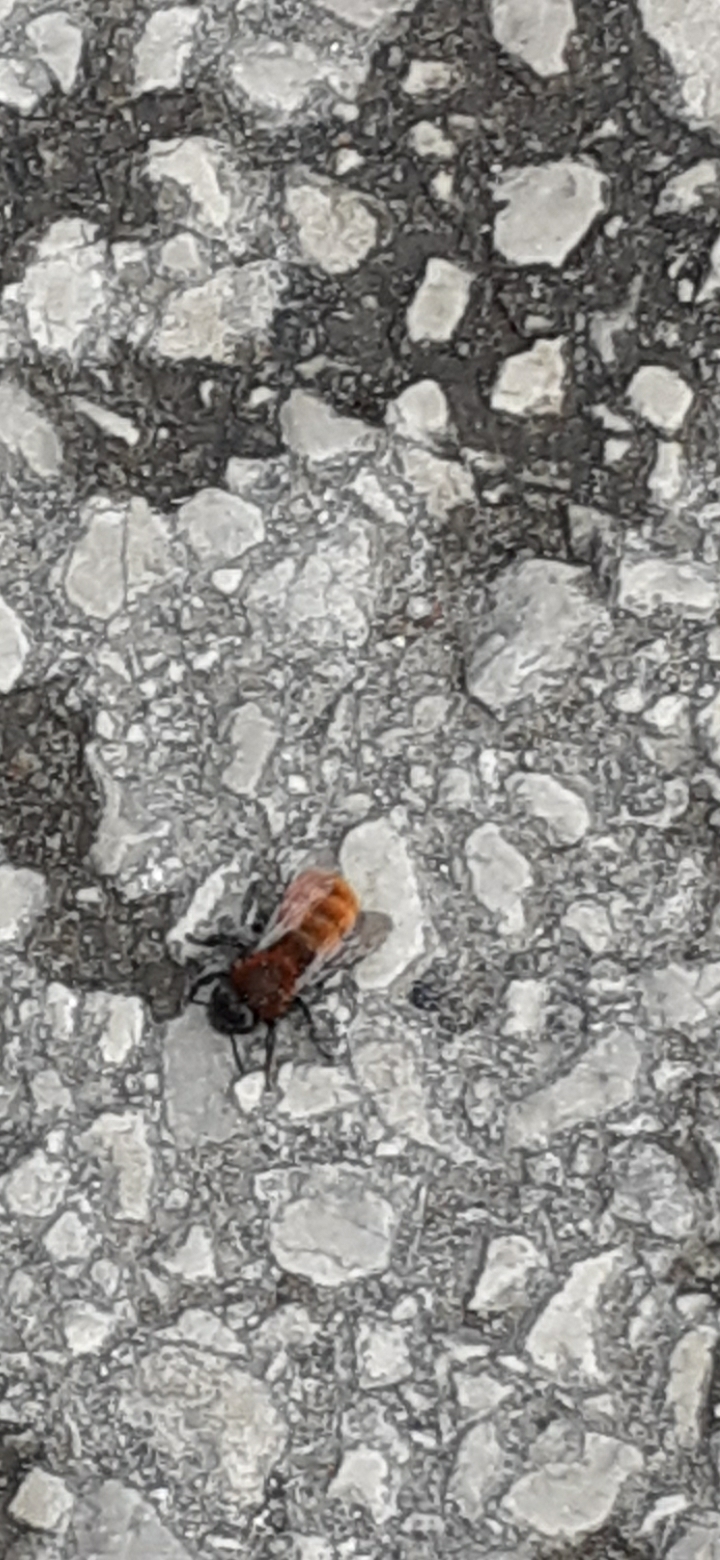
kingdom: Animalia
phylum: Arthropoda
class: Insecta
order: Hymenoptera
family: Andrenidae
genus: Andrena
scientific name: Andrena fulva
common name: Tawny mining bee
